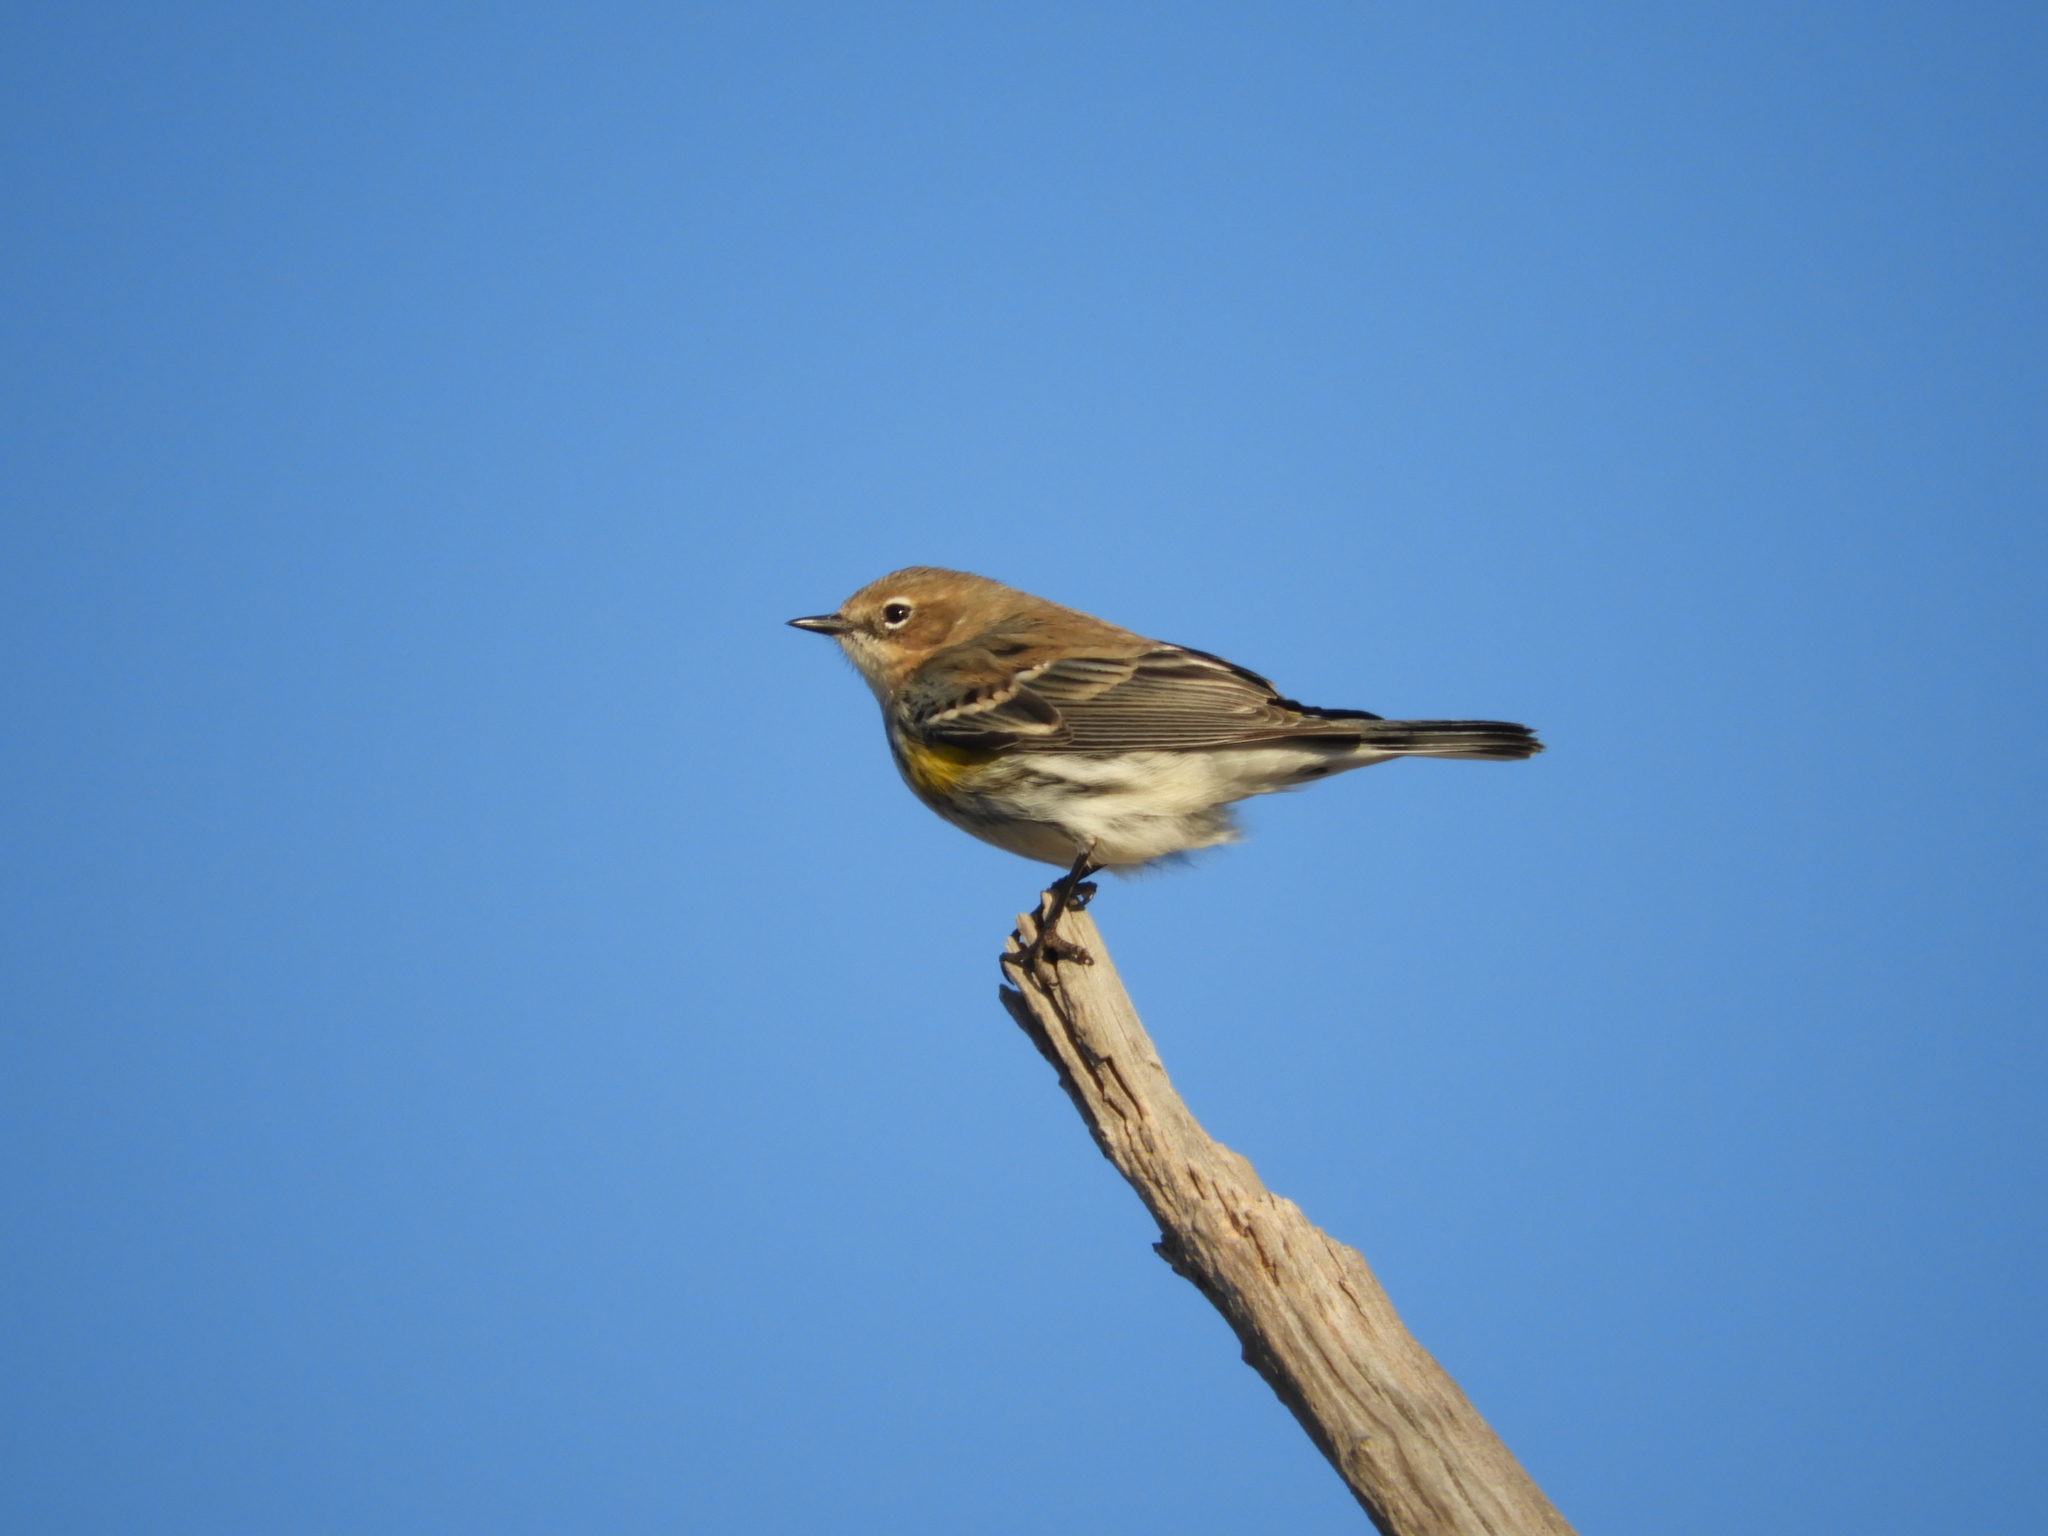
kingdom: Animalia
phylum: Chordata
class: Aves
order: Passeriformes
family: Parulidae
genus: Setophaga
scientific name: Setophaga coronata
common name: Myrtle warbler
